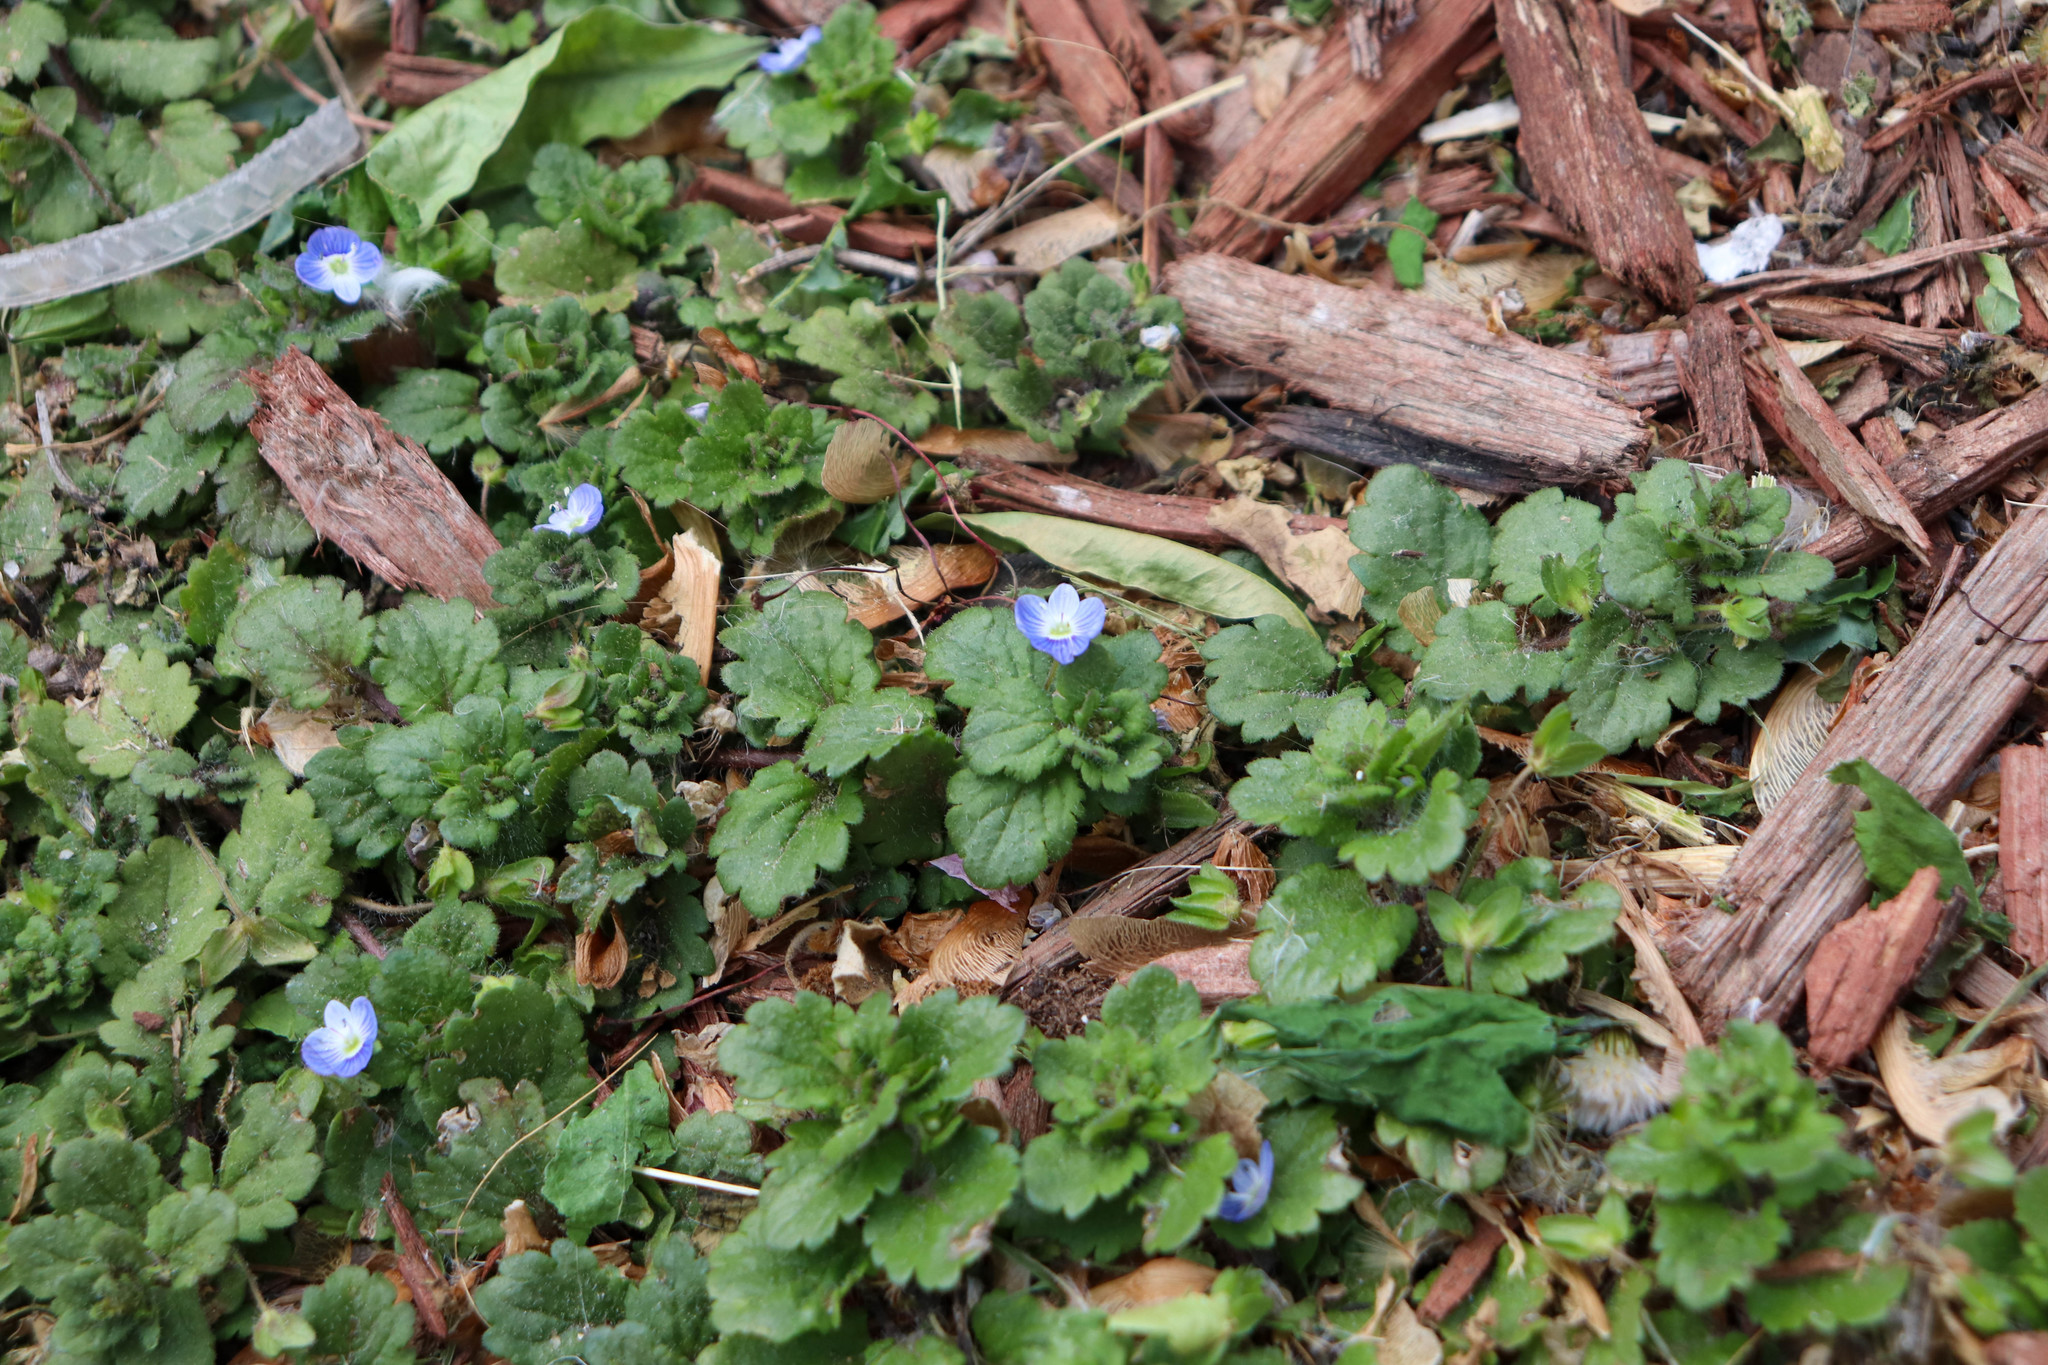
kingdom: Plantae
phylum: Tracheophyta
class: Magnoliopsida
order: Lamiales
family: Plantaginaceae
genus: Veronica
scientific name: Veronica persica
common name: Common field-speedwell
